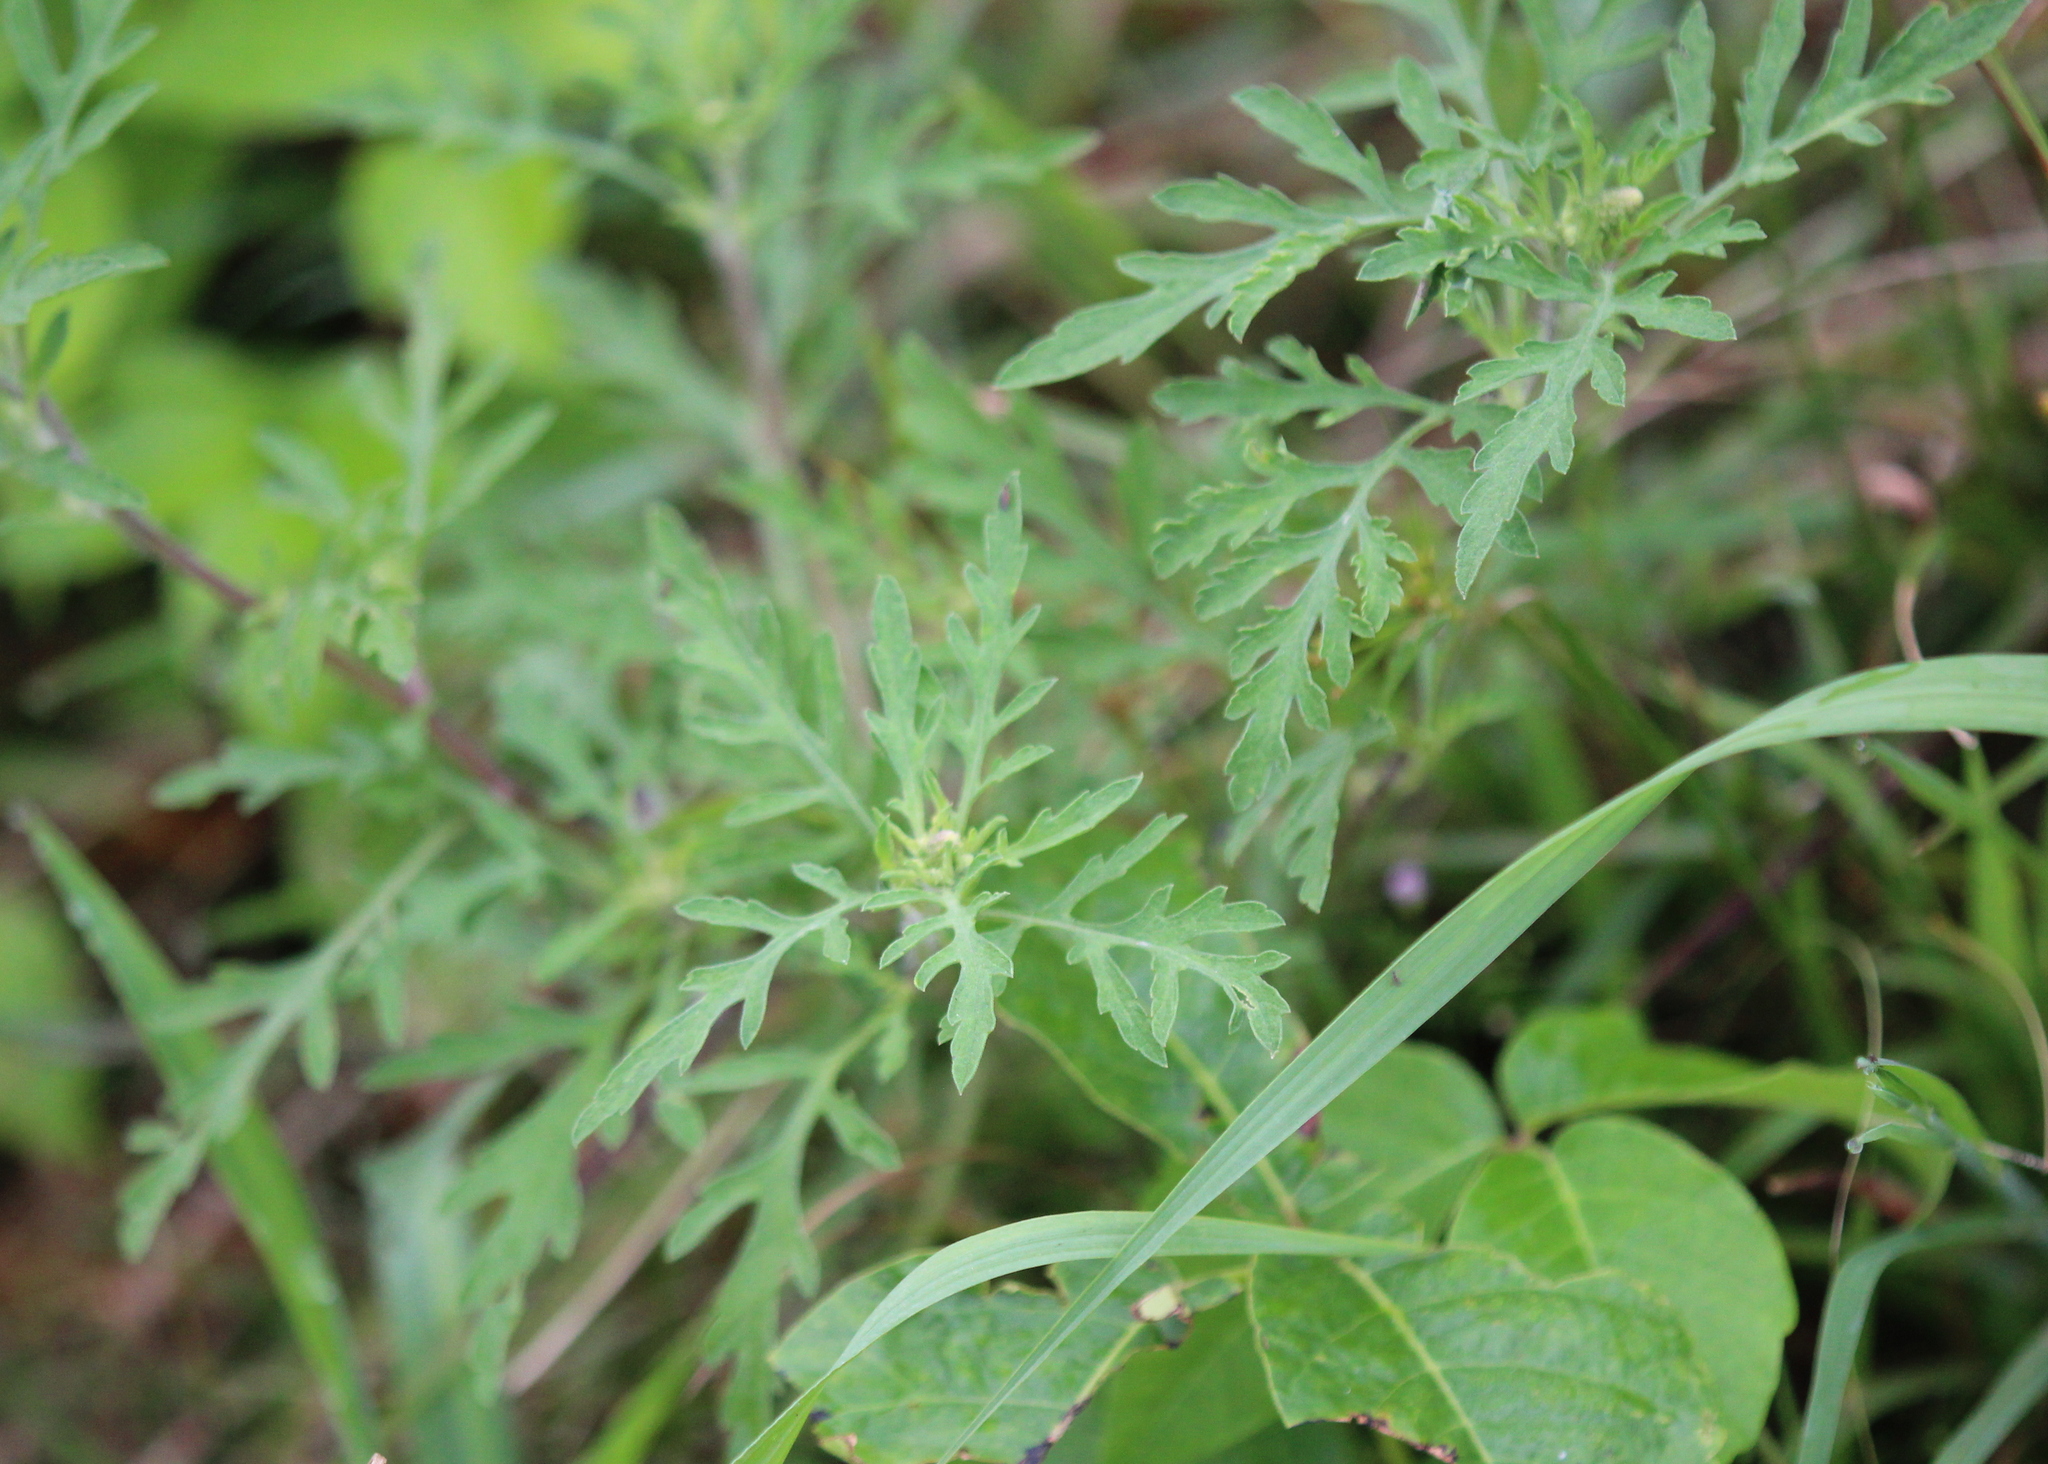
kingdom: Plantae
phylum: Tracheophyta
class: Magnoliopsida
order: Asterales
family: Asteraceae
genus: Ambrosia
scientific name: Ambrosia artemisiifolia
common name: Annual ragweed
